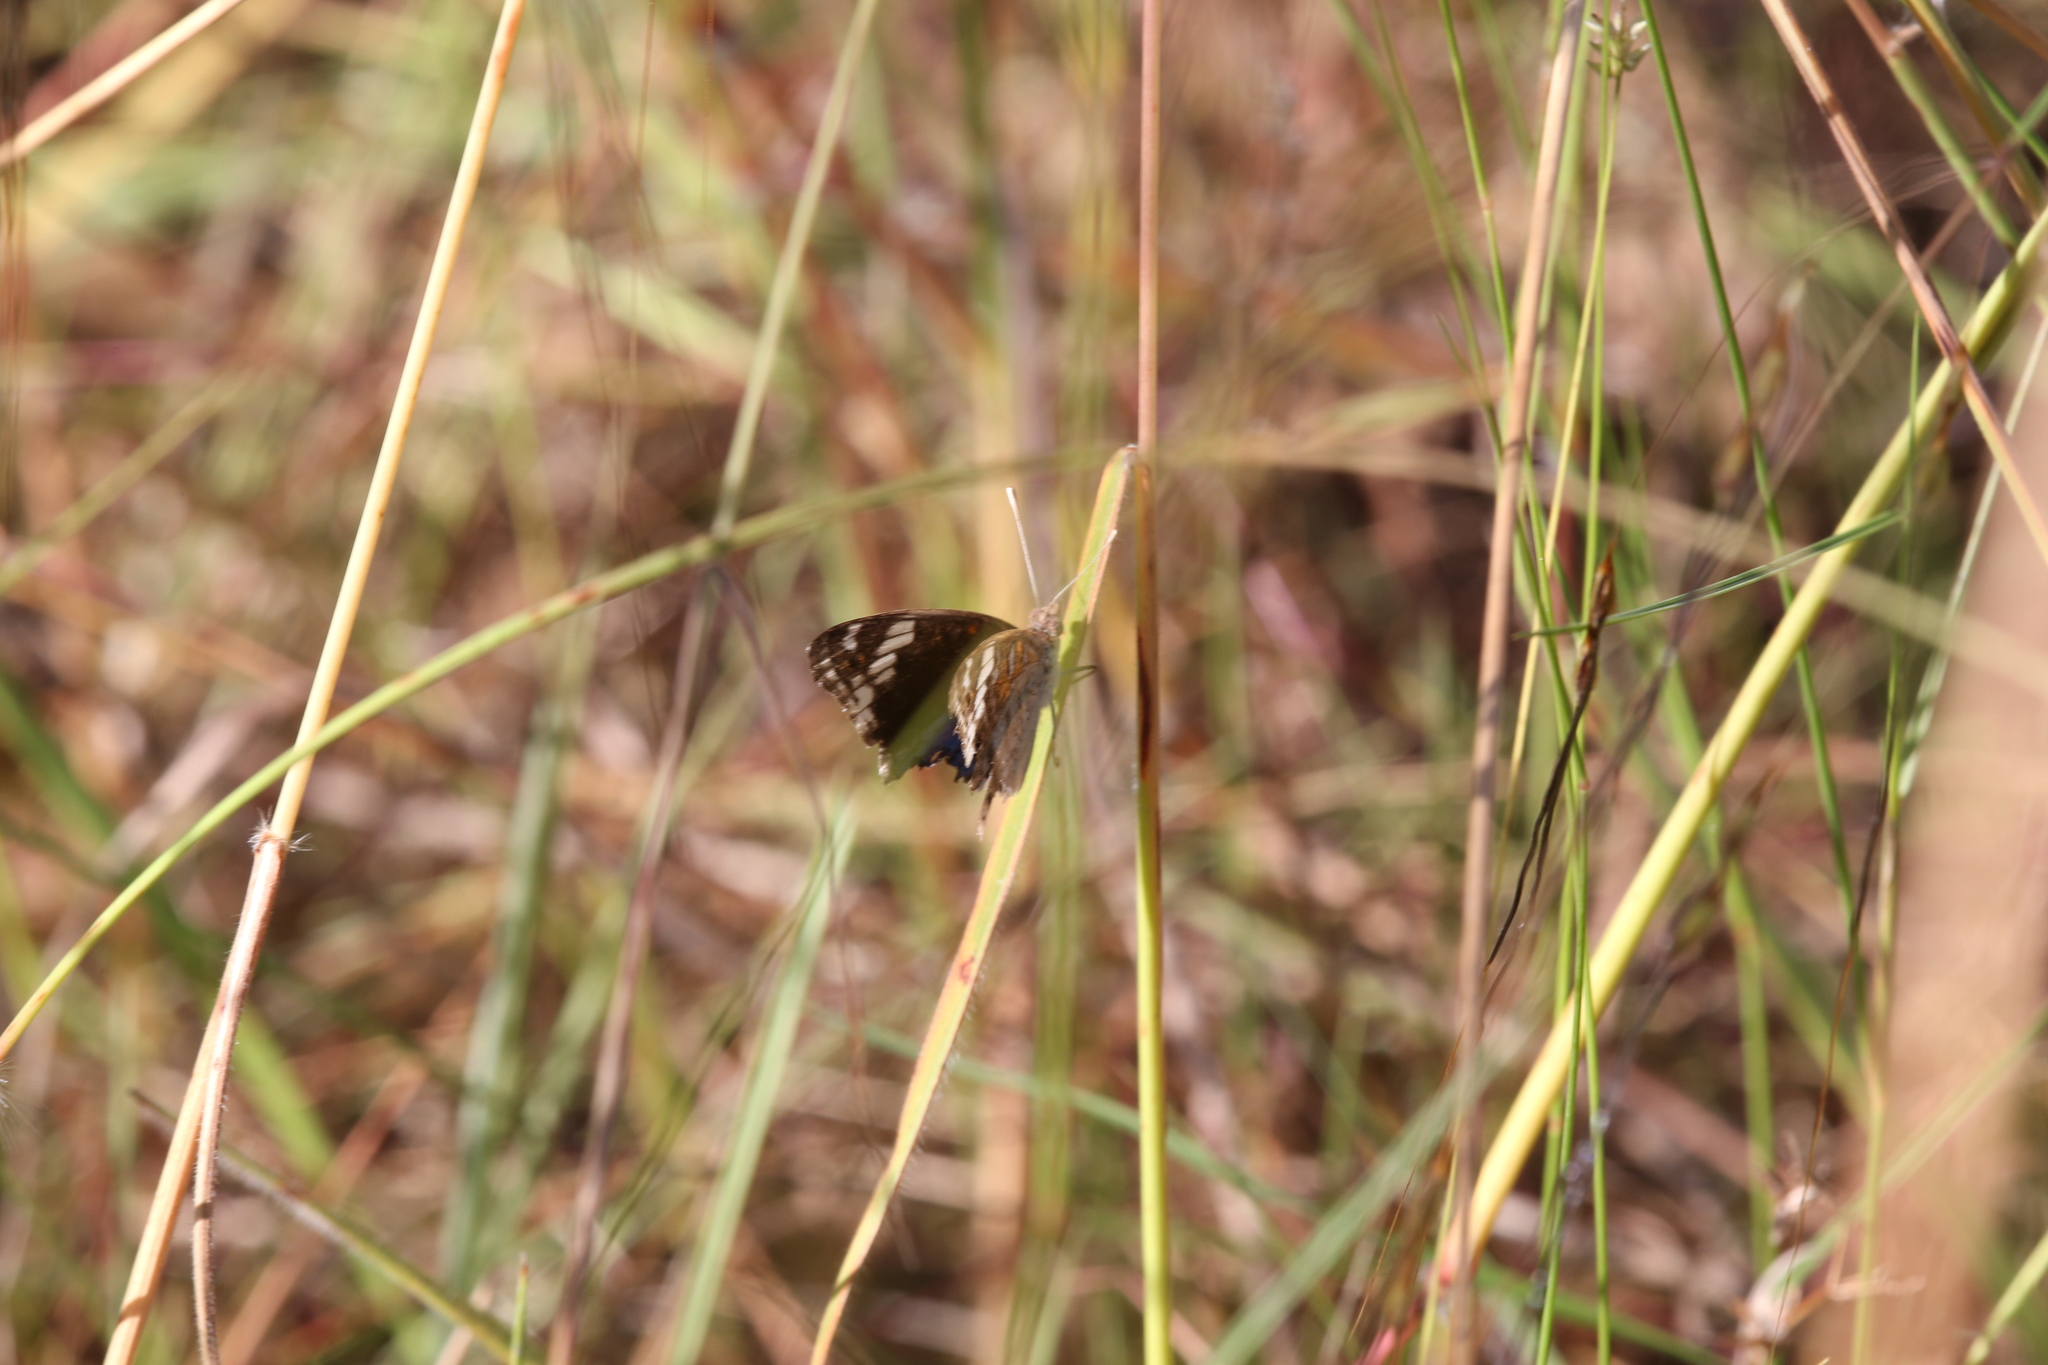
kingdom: Animalia
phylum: Arthropoda
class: Insecta
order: Lepidoptera
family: Nymphalidae
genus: Junonia
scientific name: Junonia orithya
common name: Blue pansy
